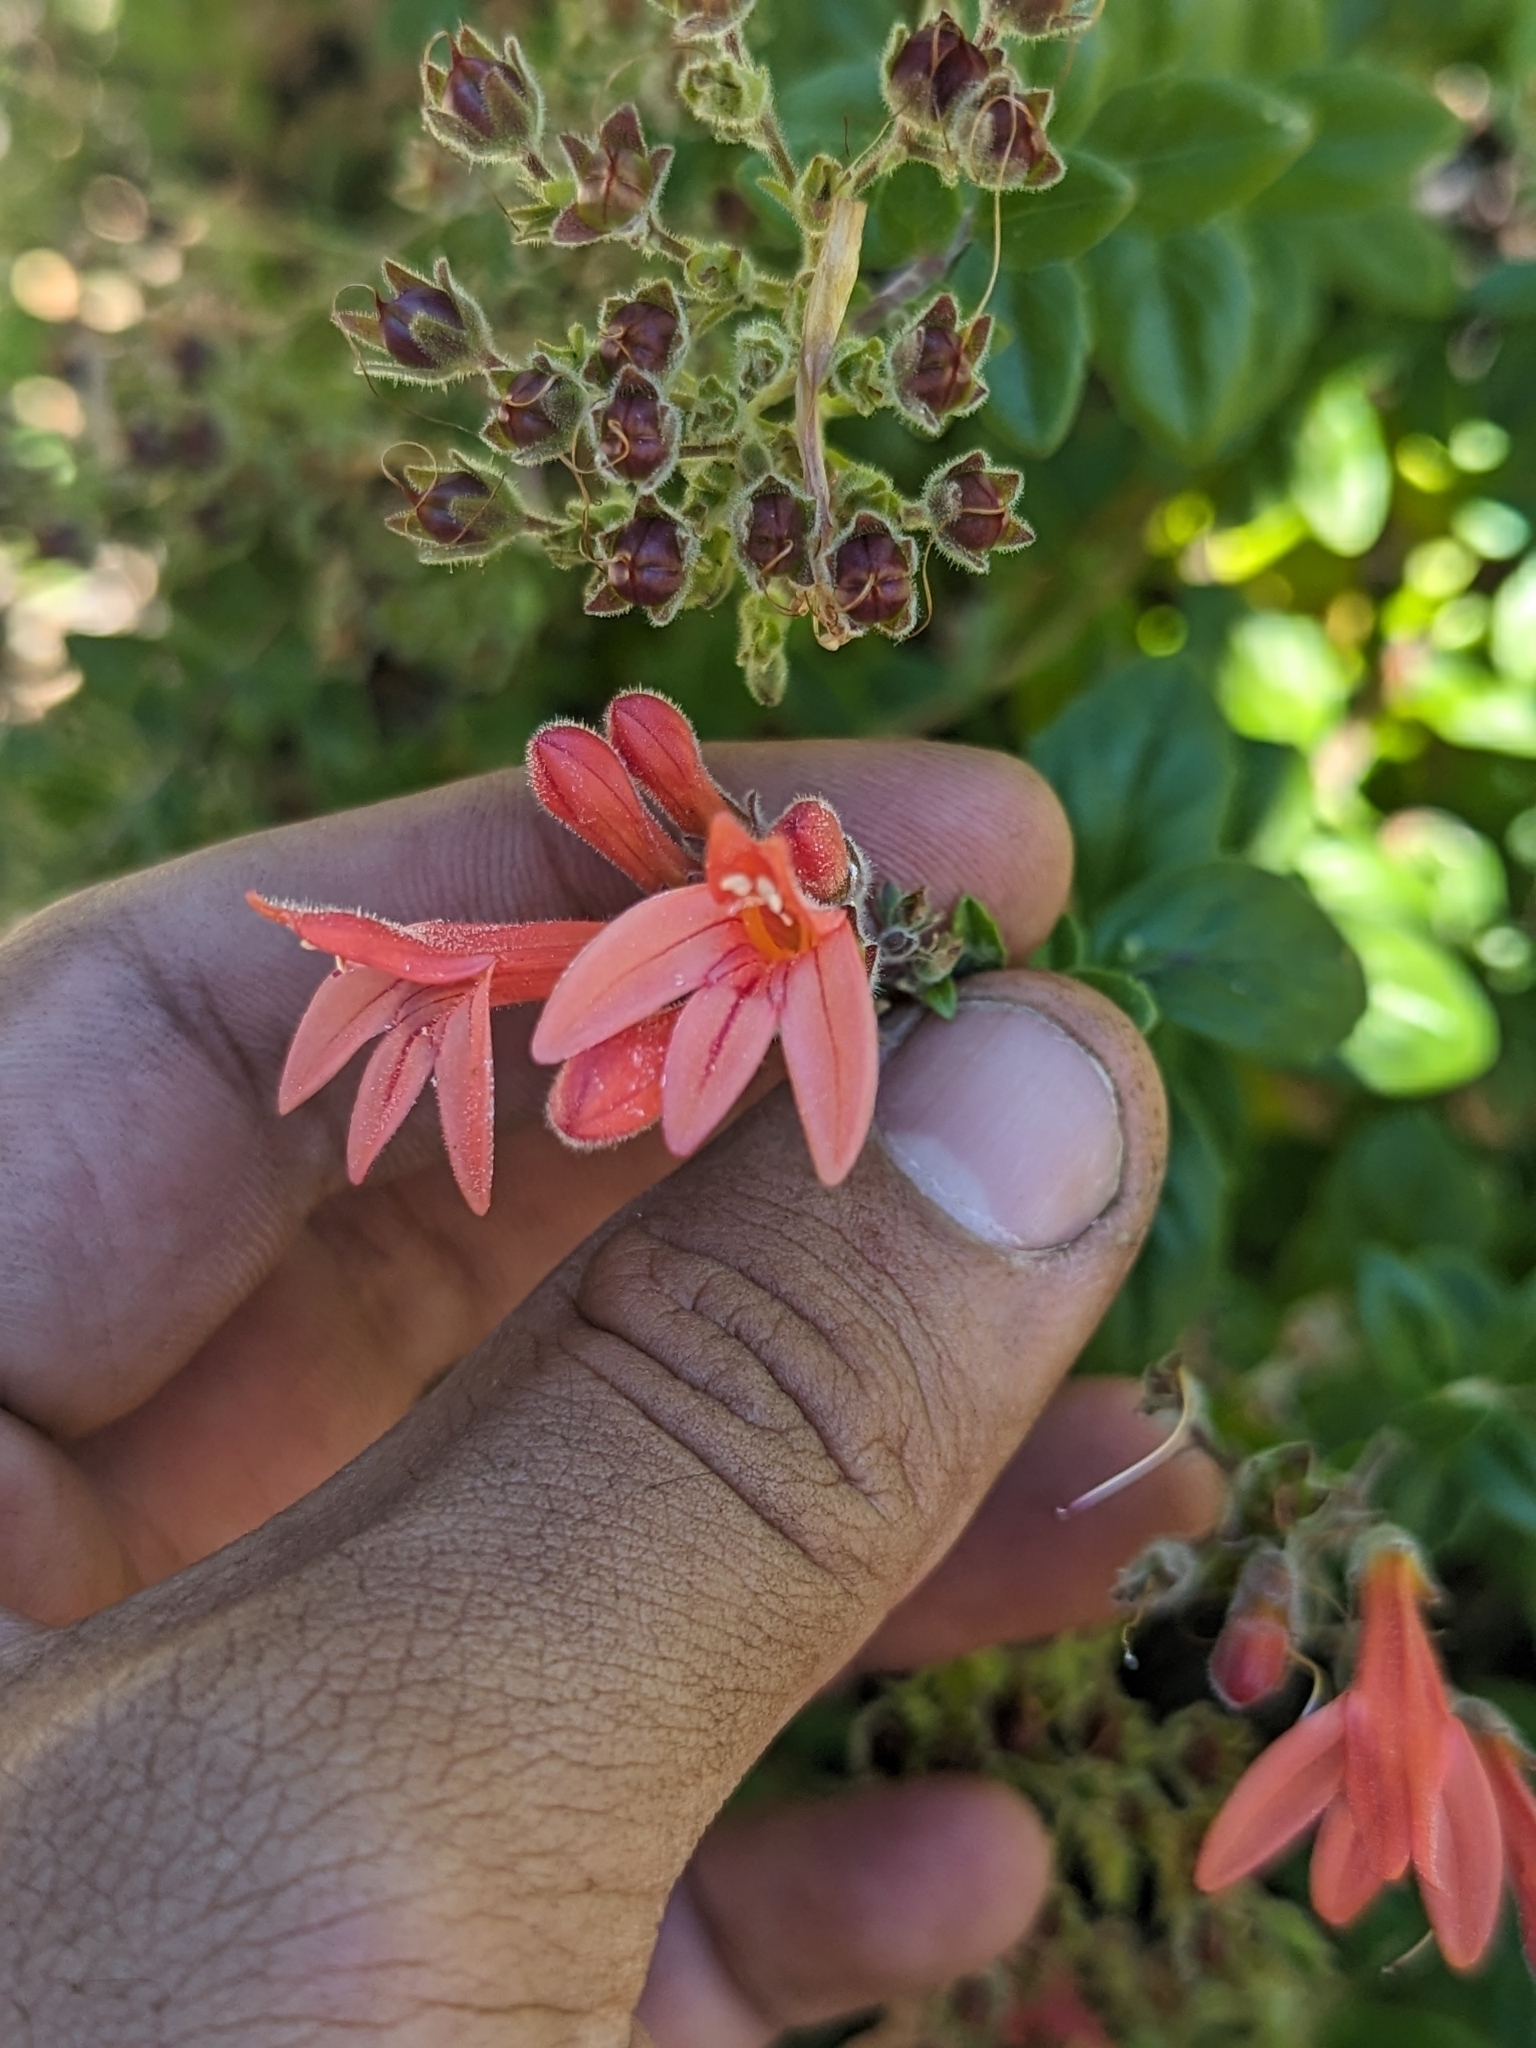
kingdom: Plantae
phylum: Tracheophyta
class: Magnoliopsida
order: Lamiales
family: Plantaginaceae
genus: Keckiella
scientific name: Keckiella corymbosa
